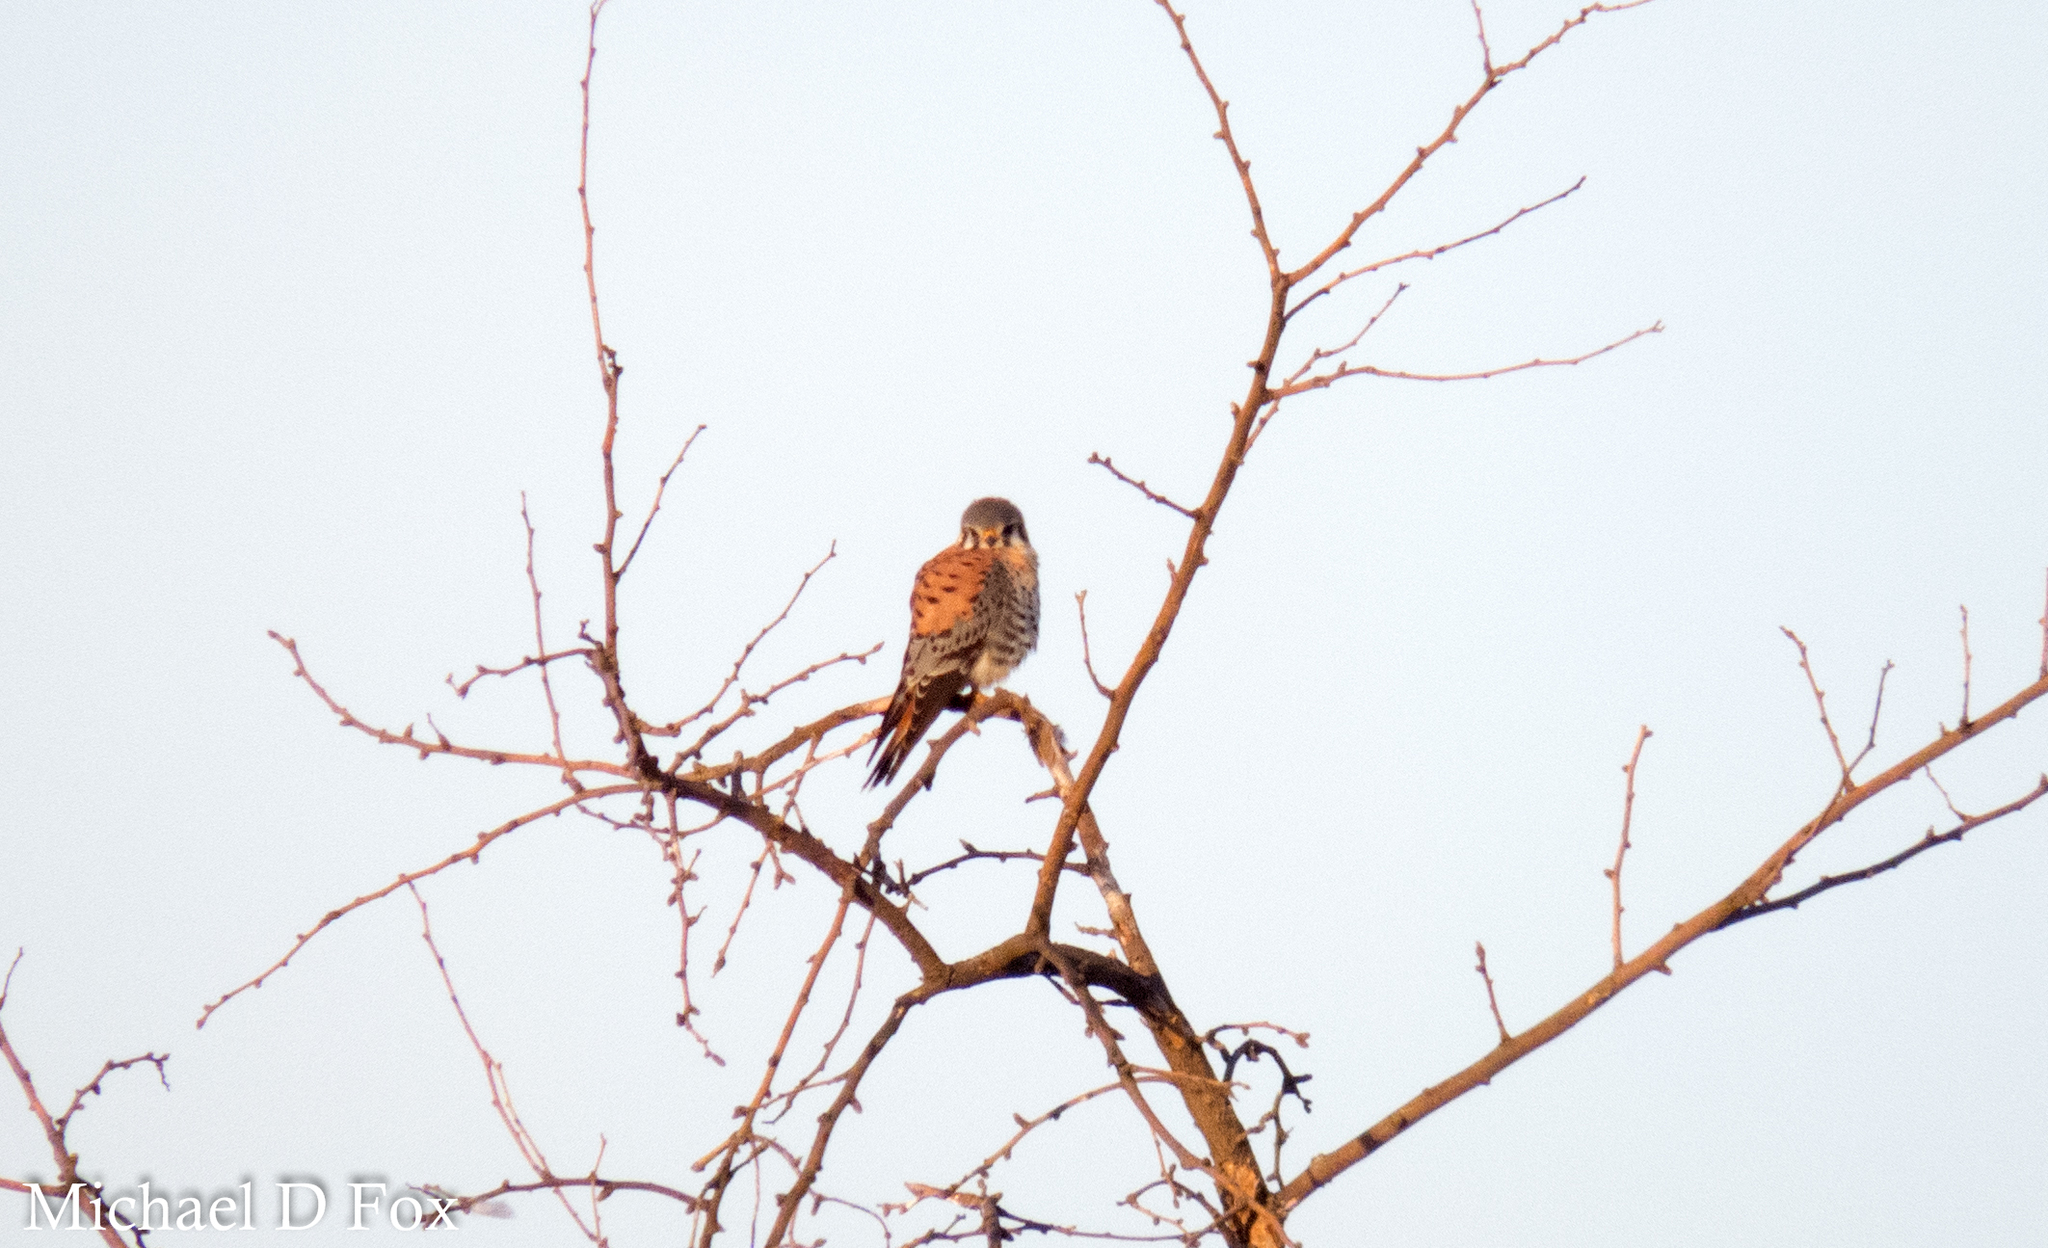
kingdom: Animalia
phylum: Chordata
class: Aves
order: Falconiformes
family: Falconidae
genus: Falco
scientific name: Falco sparverius
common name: American kestrel
